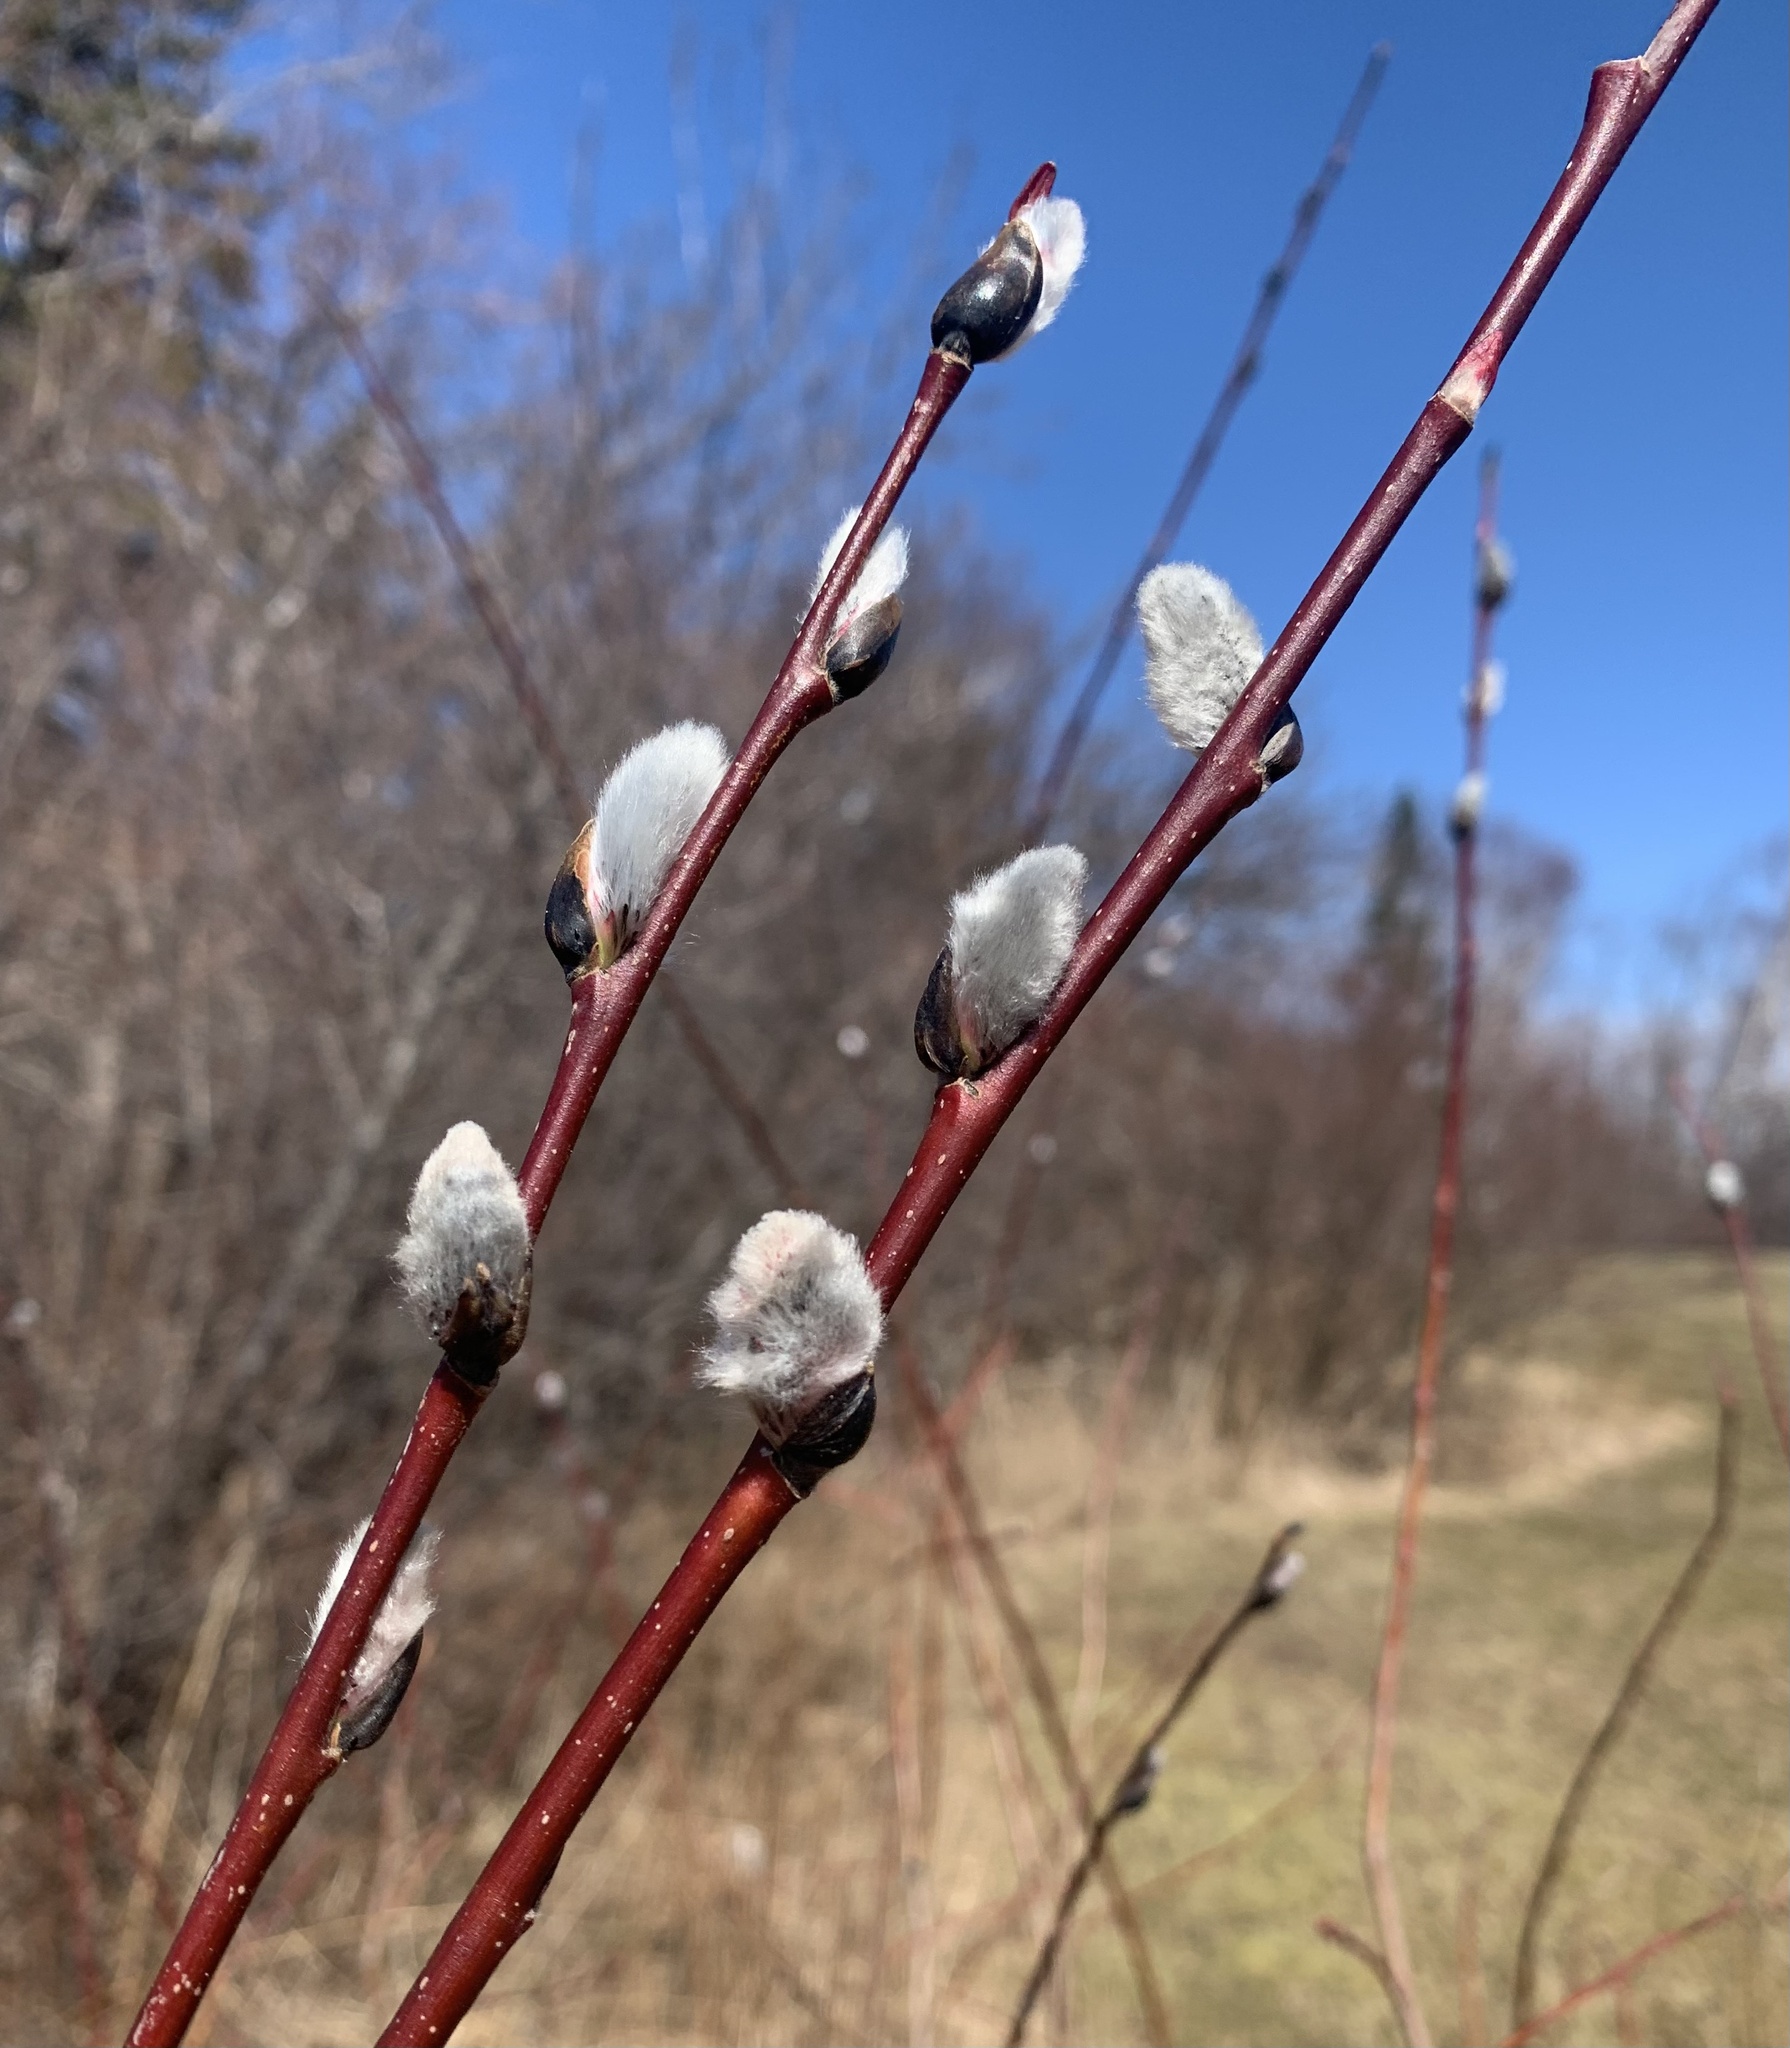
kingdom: Plantae
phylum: Tracheophyta
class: Magnoliopsida
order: Malpighiales
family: Salicaceae
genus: Salix
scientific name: Salix discolor
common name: Glaucous willow
